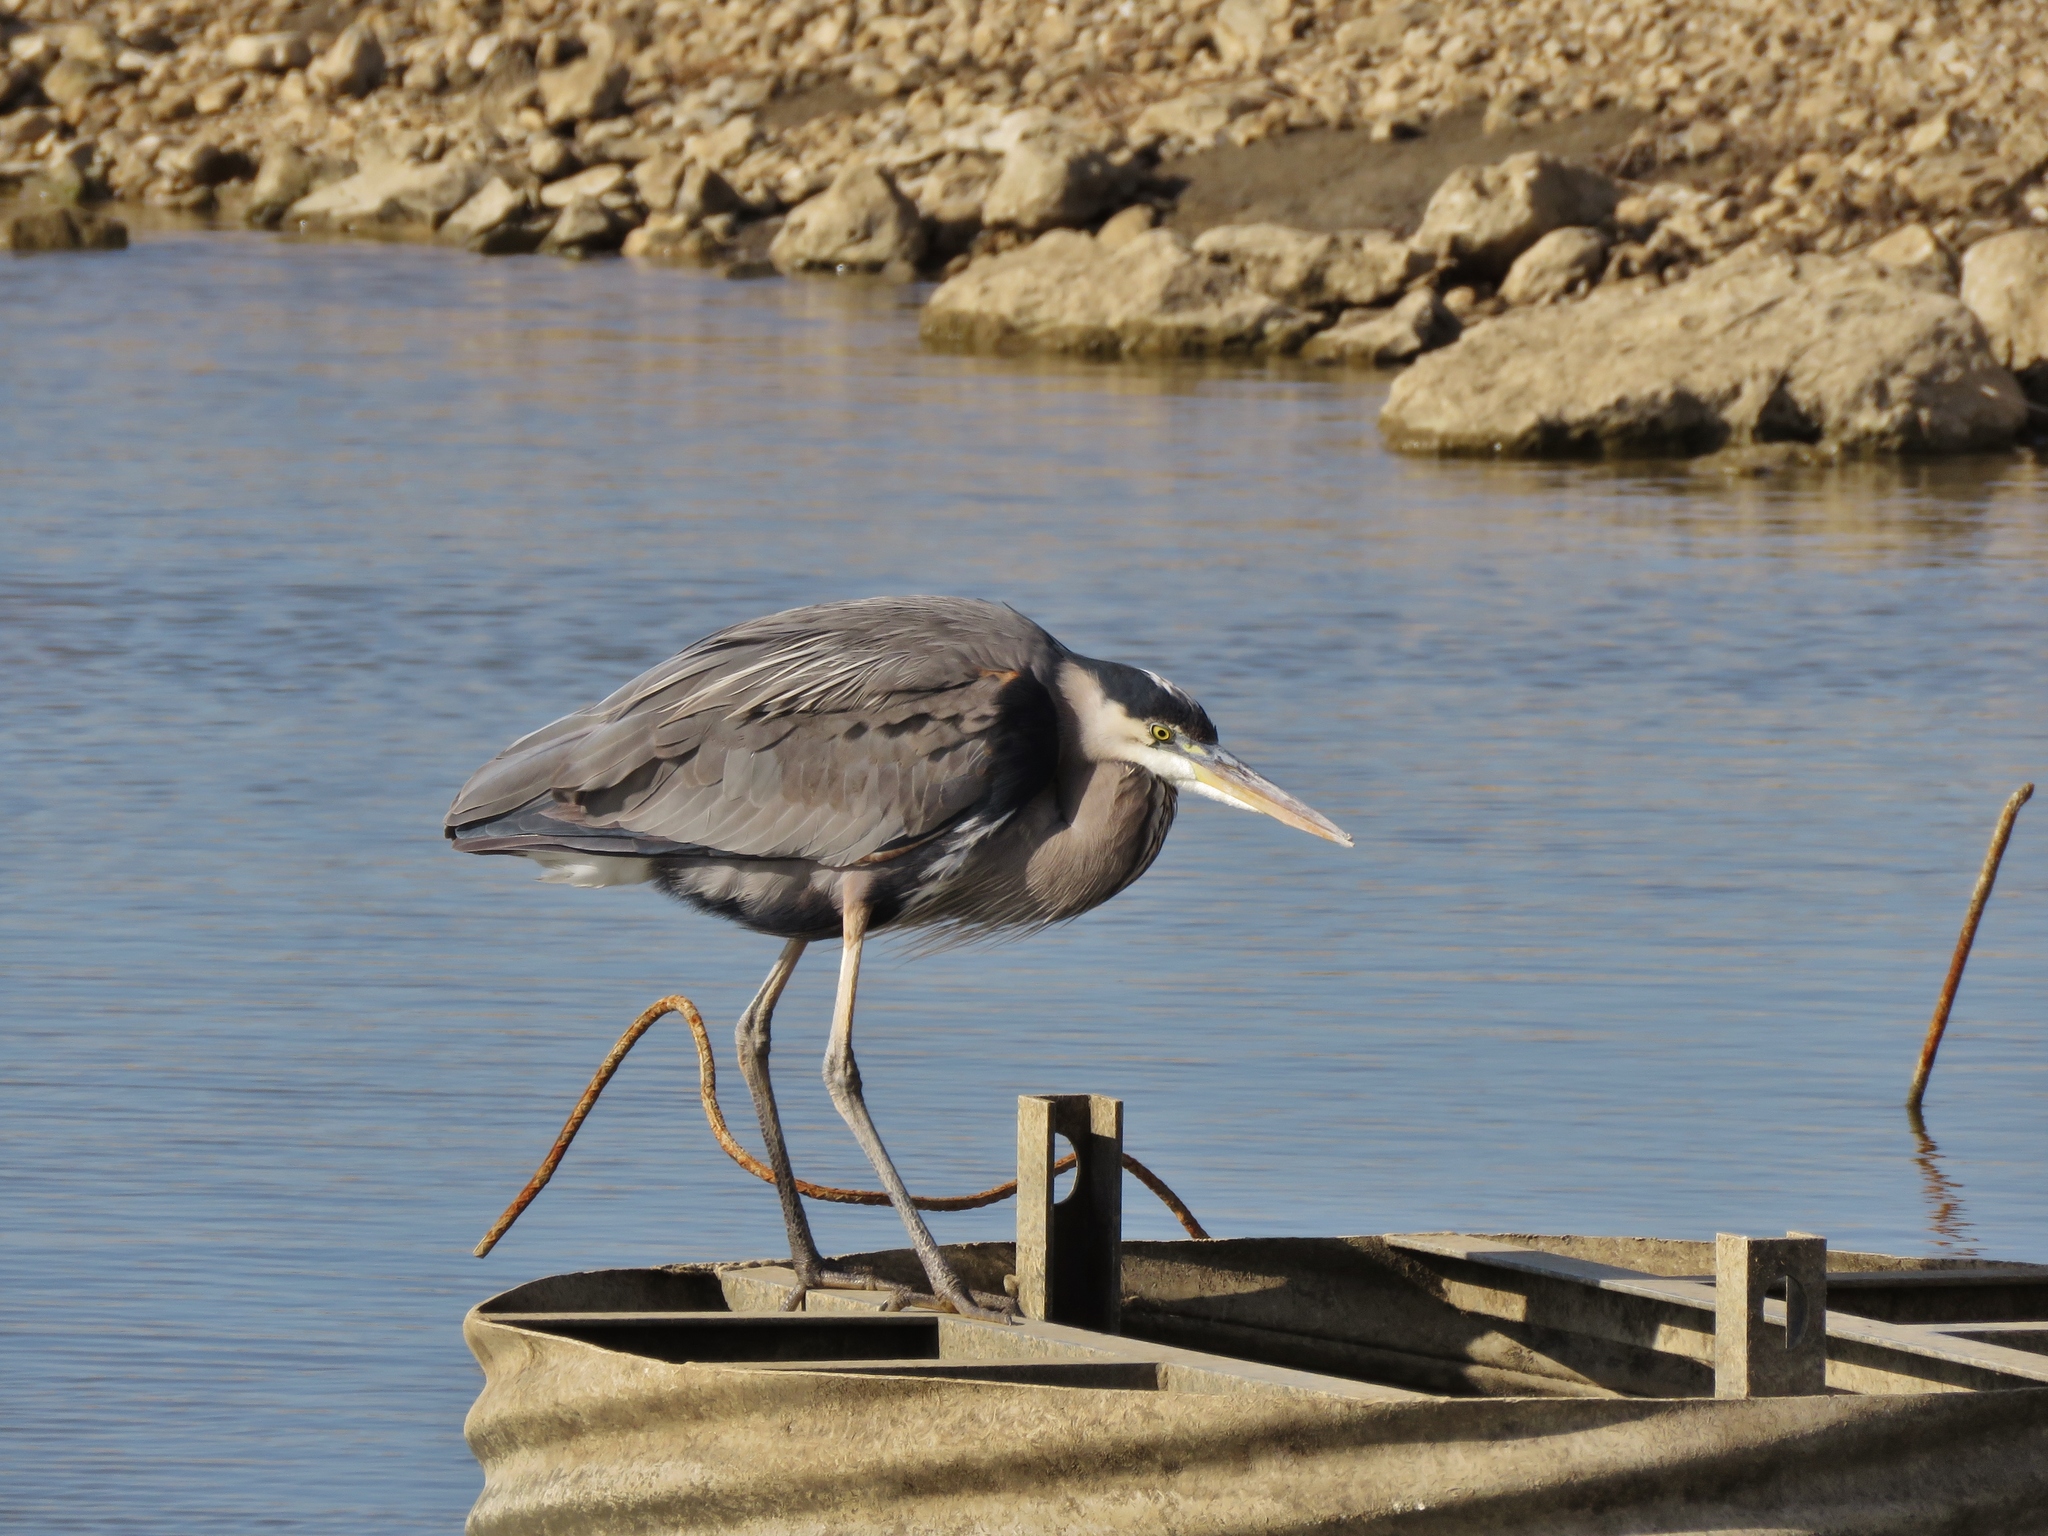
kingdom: Animalia
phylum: Chordata
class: Aves
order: Pelecaniformes
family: Ardeidae
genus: Ardea
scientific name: Ardea herodias
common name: Great blue heron
